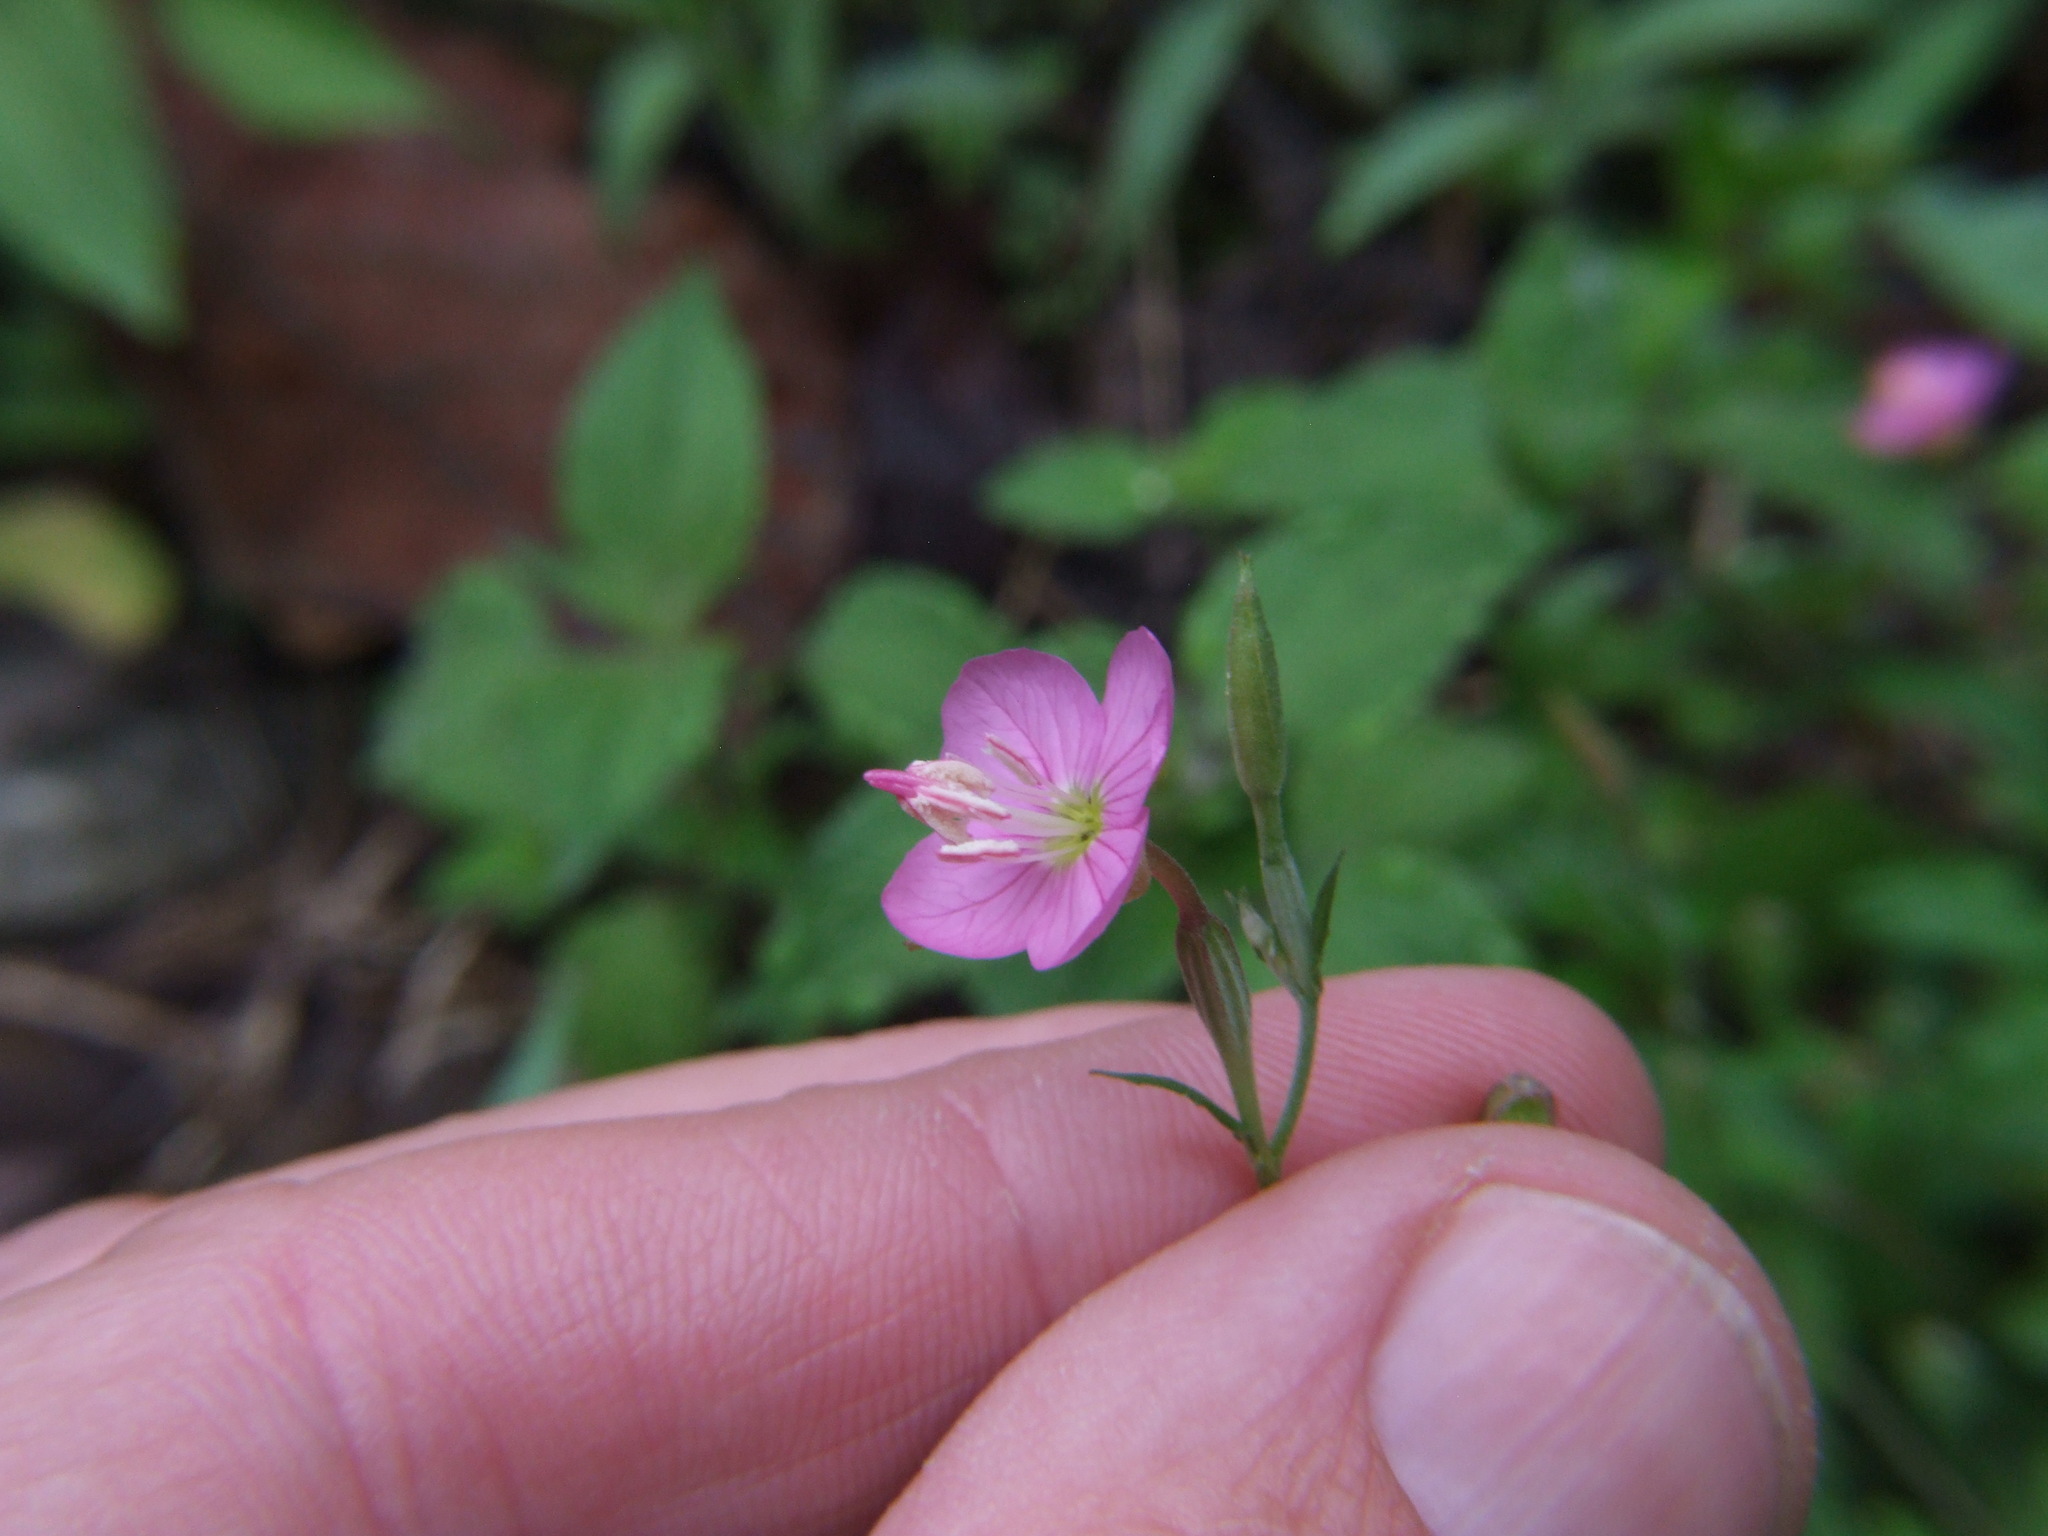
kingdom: Plantae
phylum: Tracheophyta
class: Magnoliopsida
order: Myrtales
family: Onagraceae
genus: Oenothera
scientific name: Oenothera rosea
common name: Rosy evening-primrose
